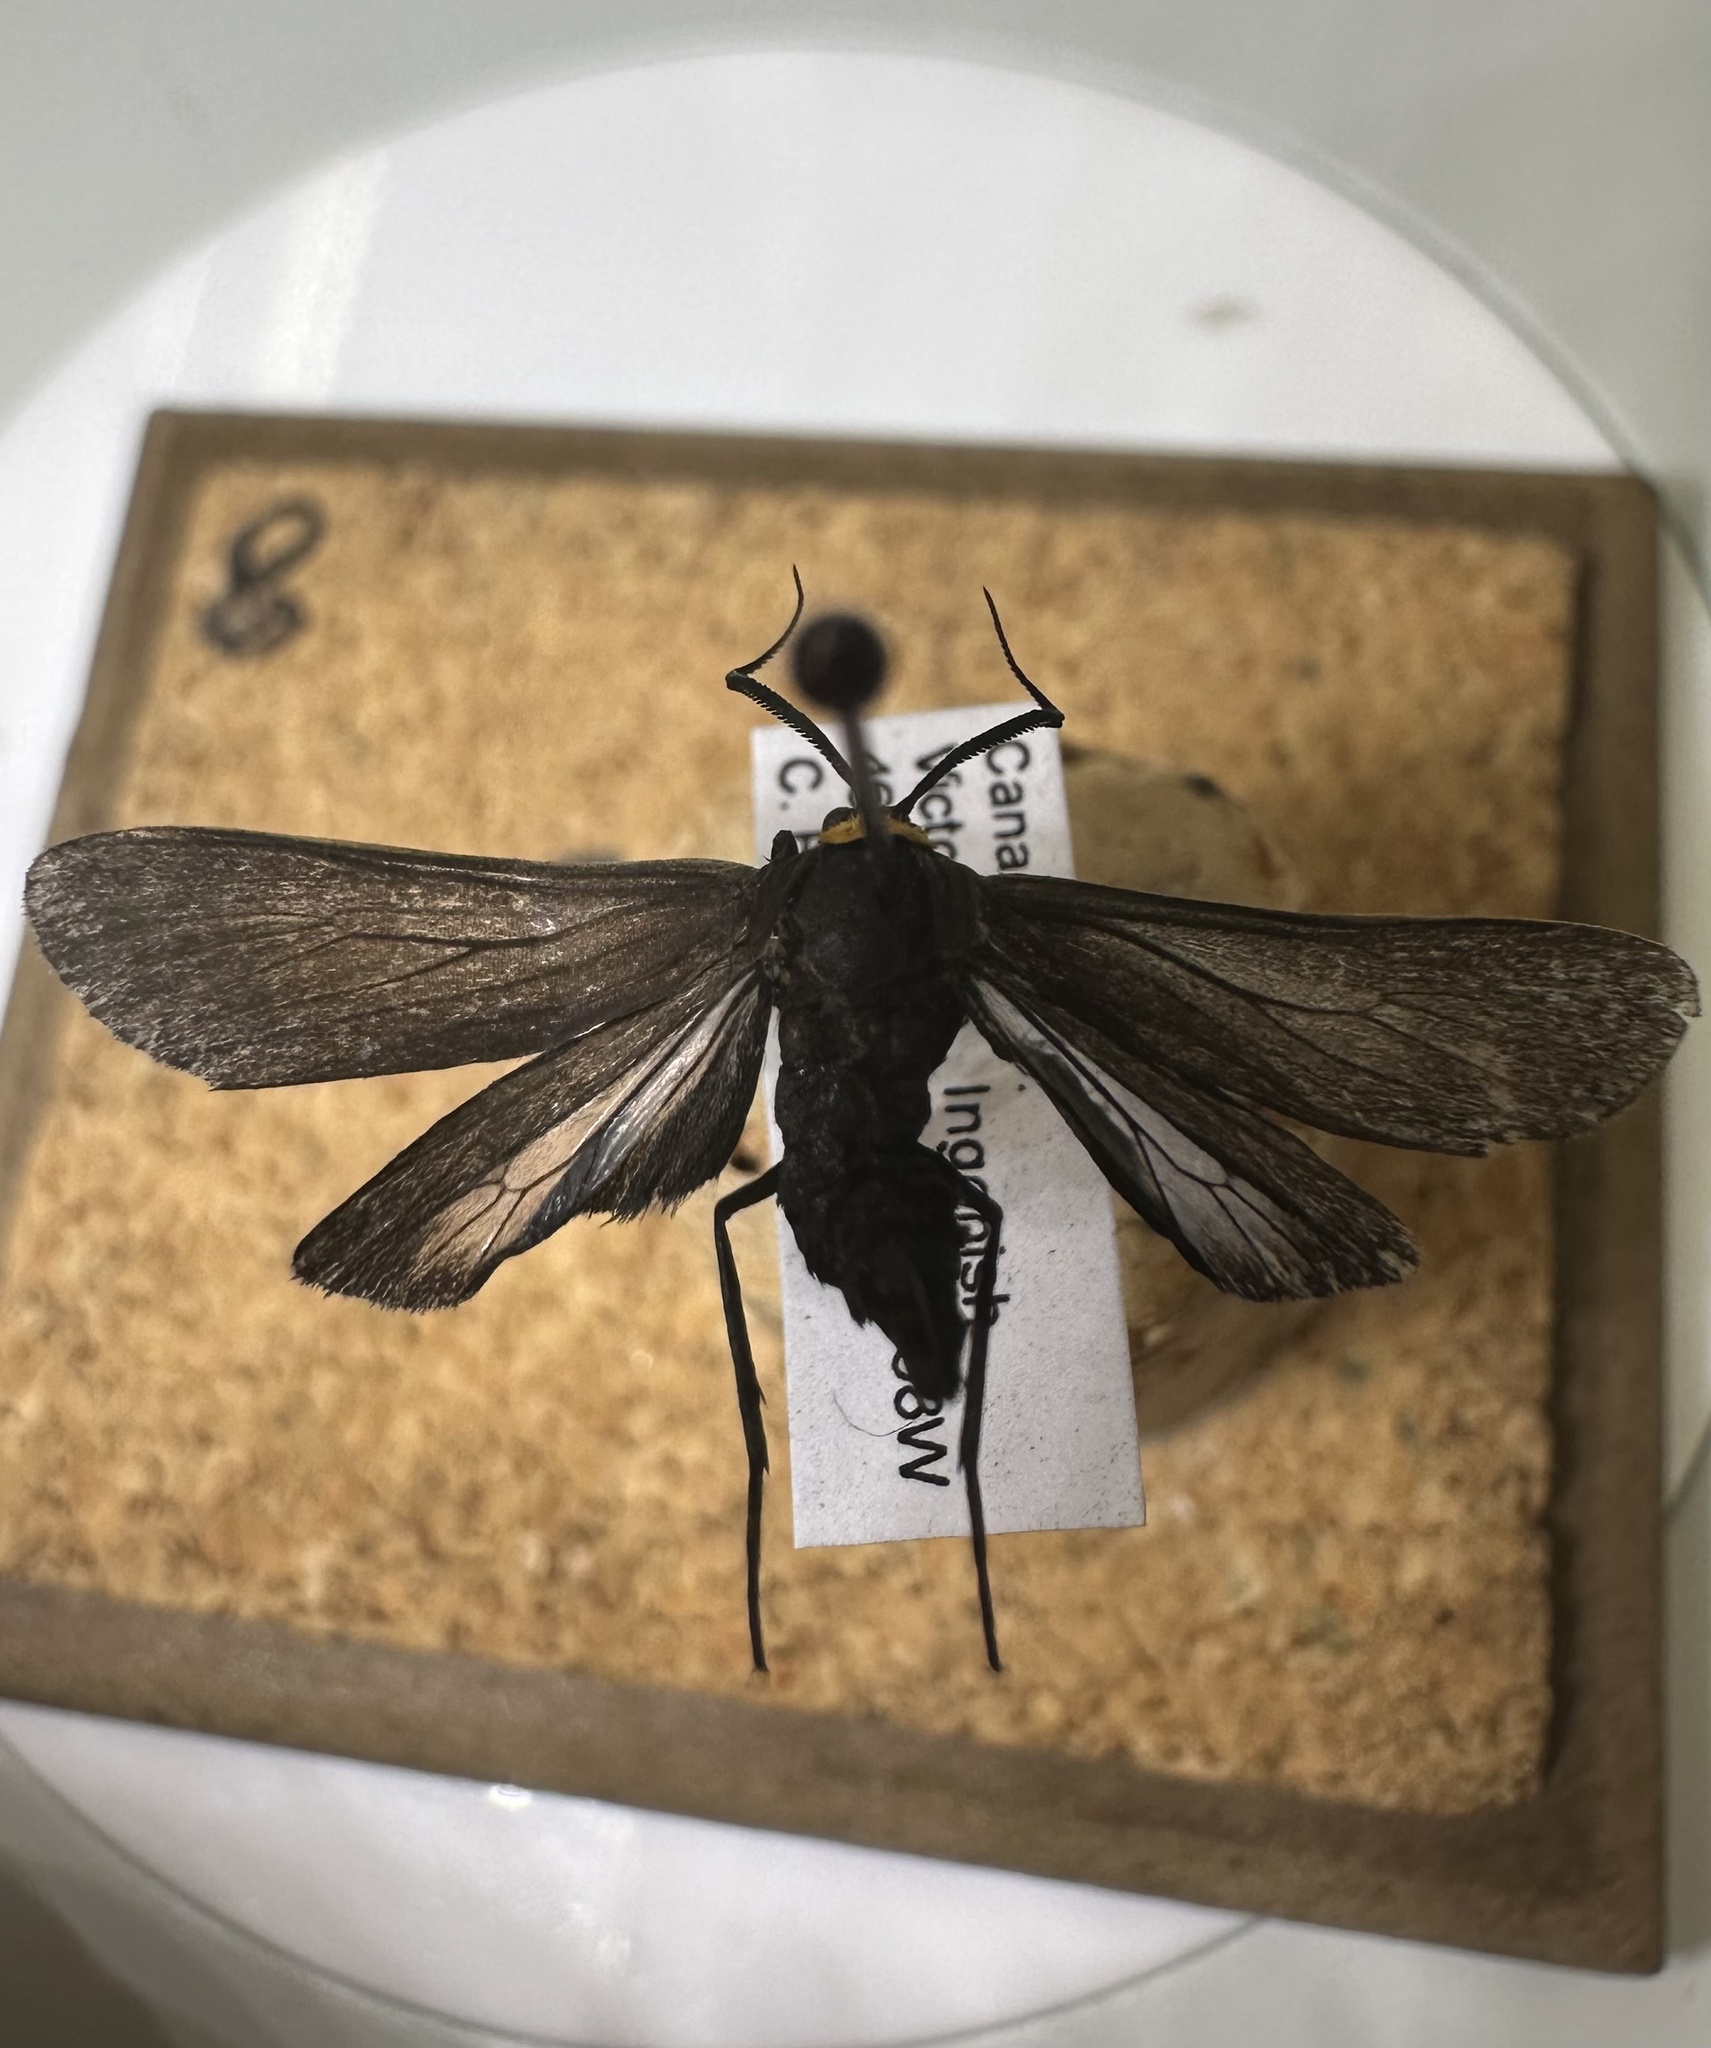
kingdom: Animalia
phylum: Arthropoda
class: Insecta
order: Lepidoptera
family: Erebidae
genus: Cisseps
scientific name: Cisseps fulvicollis
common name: Yellow-collared scape moth
